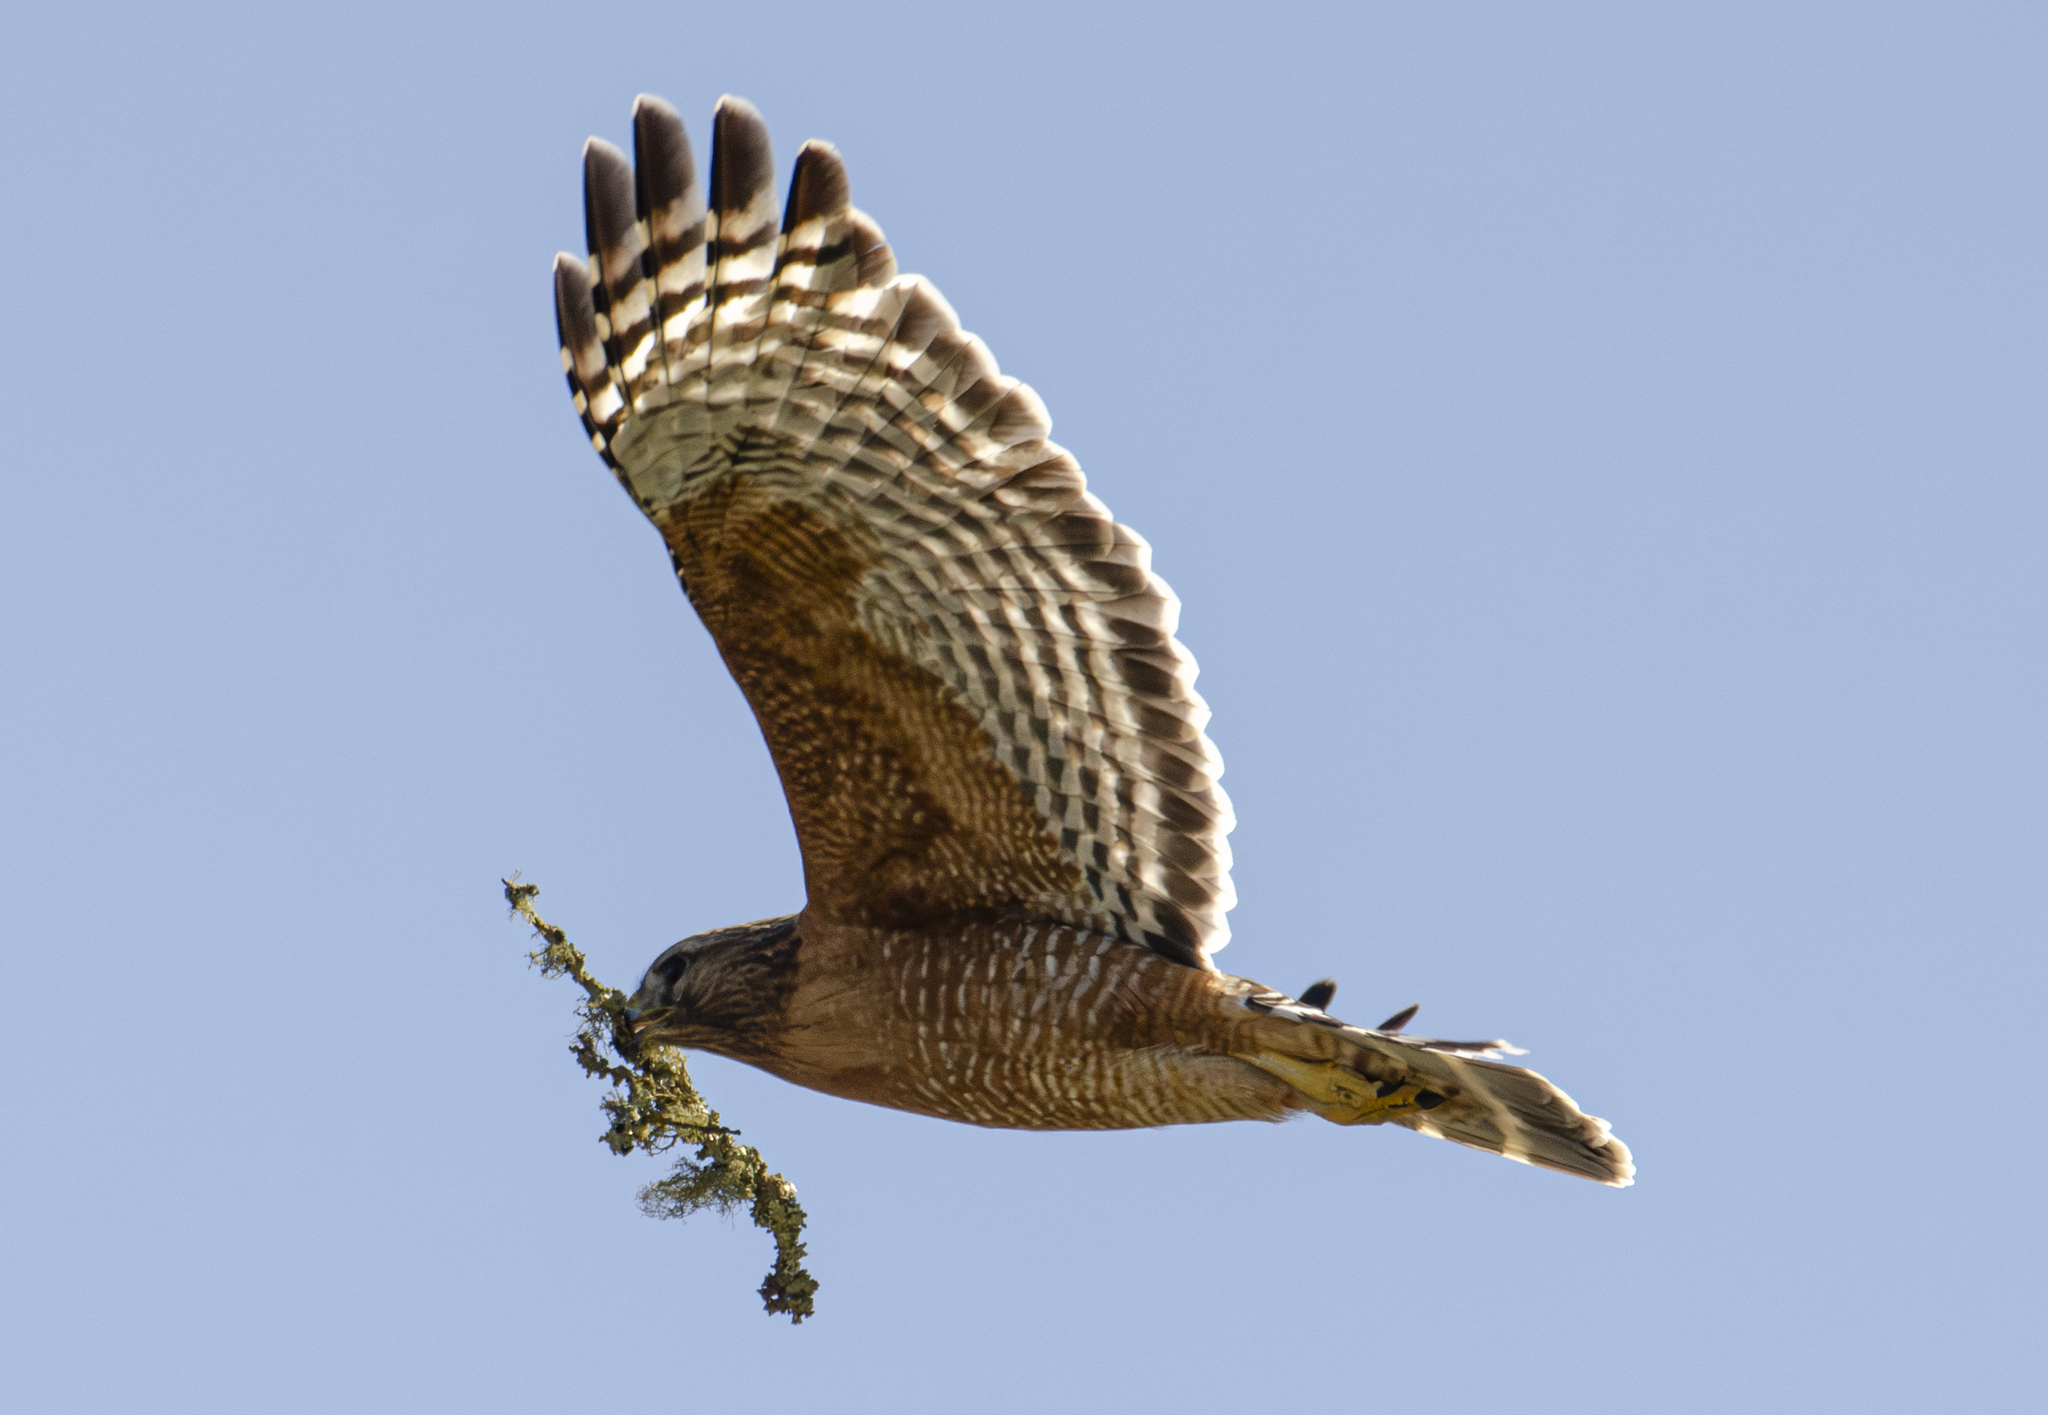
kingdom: Animalia
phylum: Chordata
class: Aves
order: Accipitriformes
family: Accipitridae
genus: Buteo
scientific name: Buteo lineatus
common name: Red-shouldered hawk
